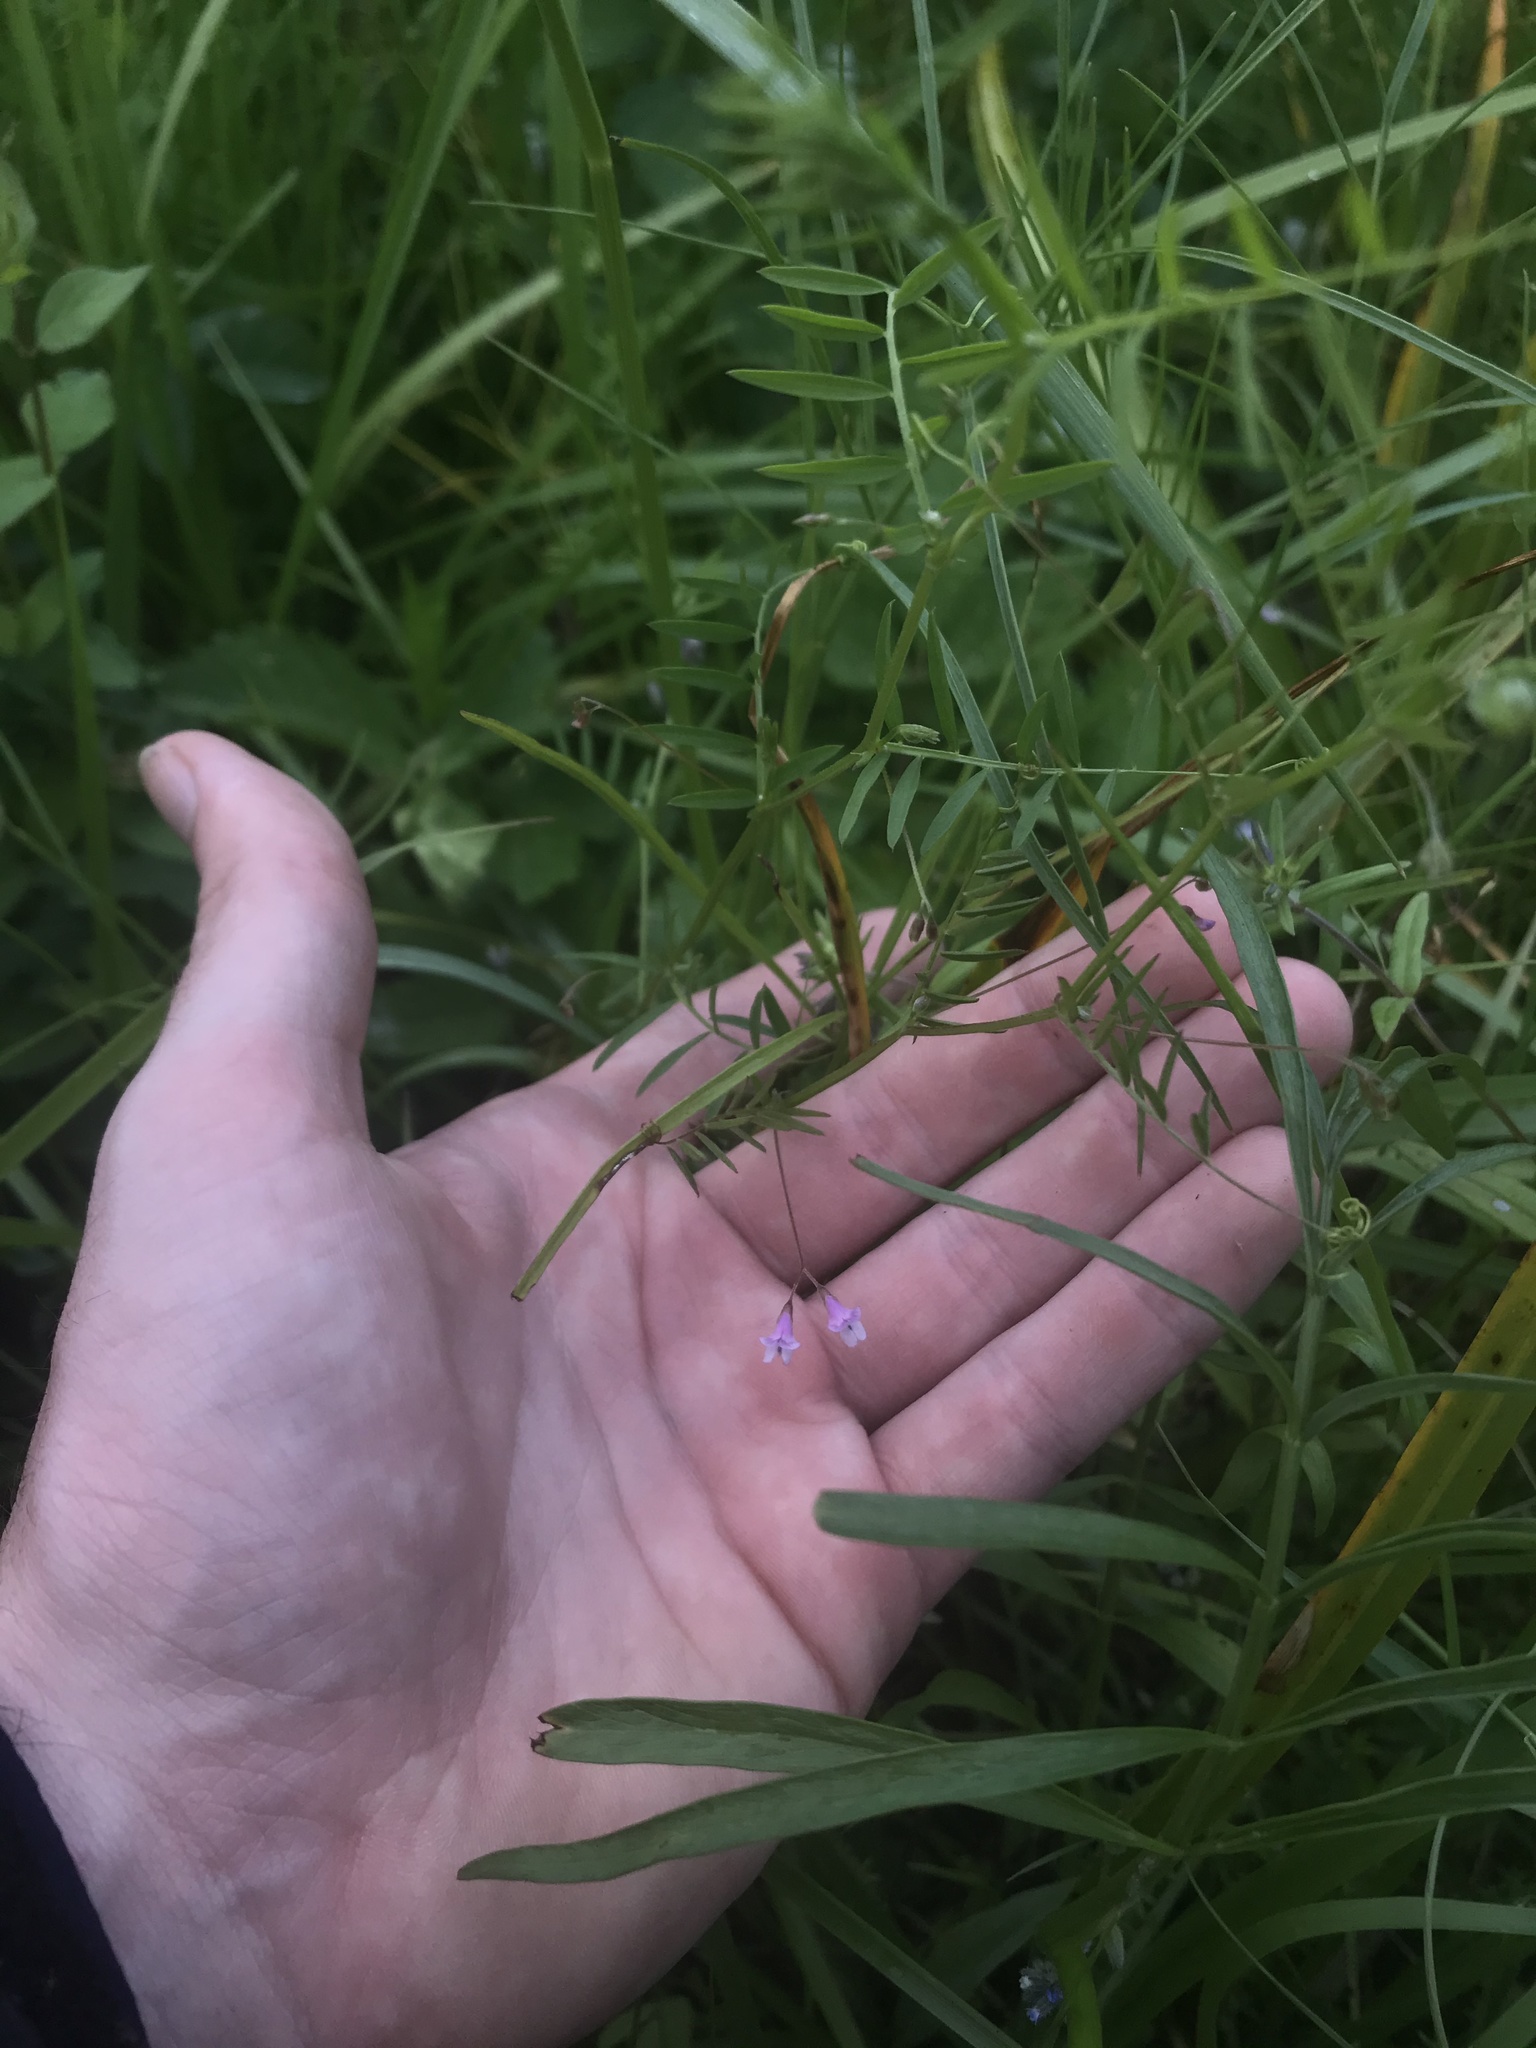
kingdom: Plantae
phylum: Tracheophyta
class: Magnoliopsida
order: Fabales
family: Fabaceae
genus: Vicia
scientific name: Vicia tetrasperma
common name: Smooth tare
